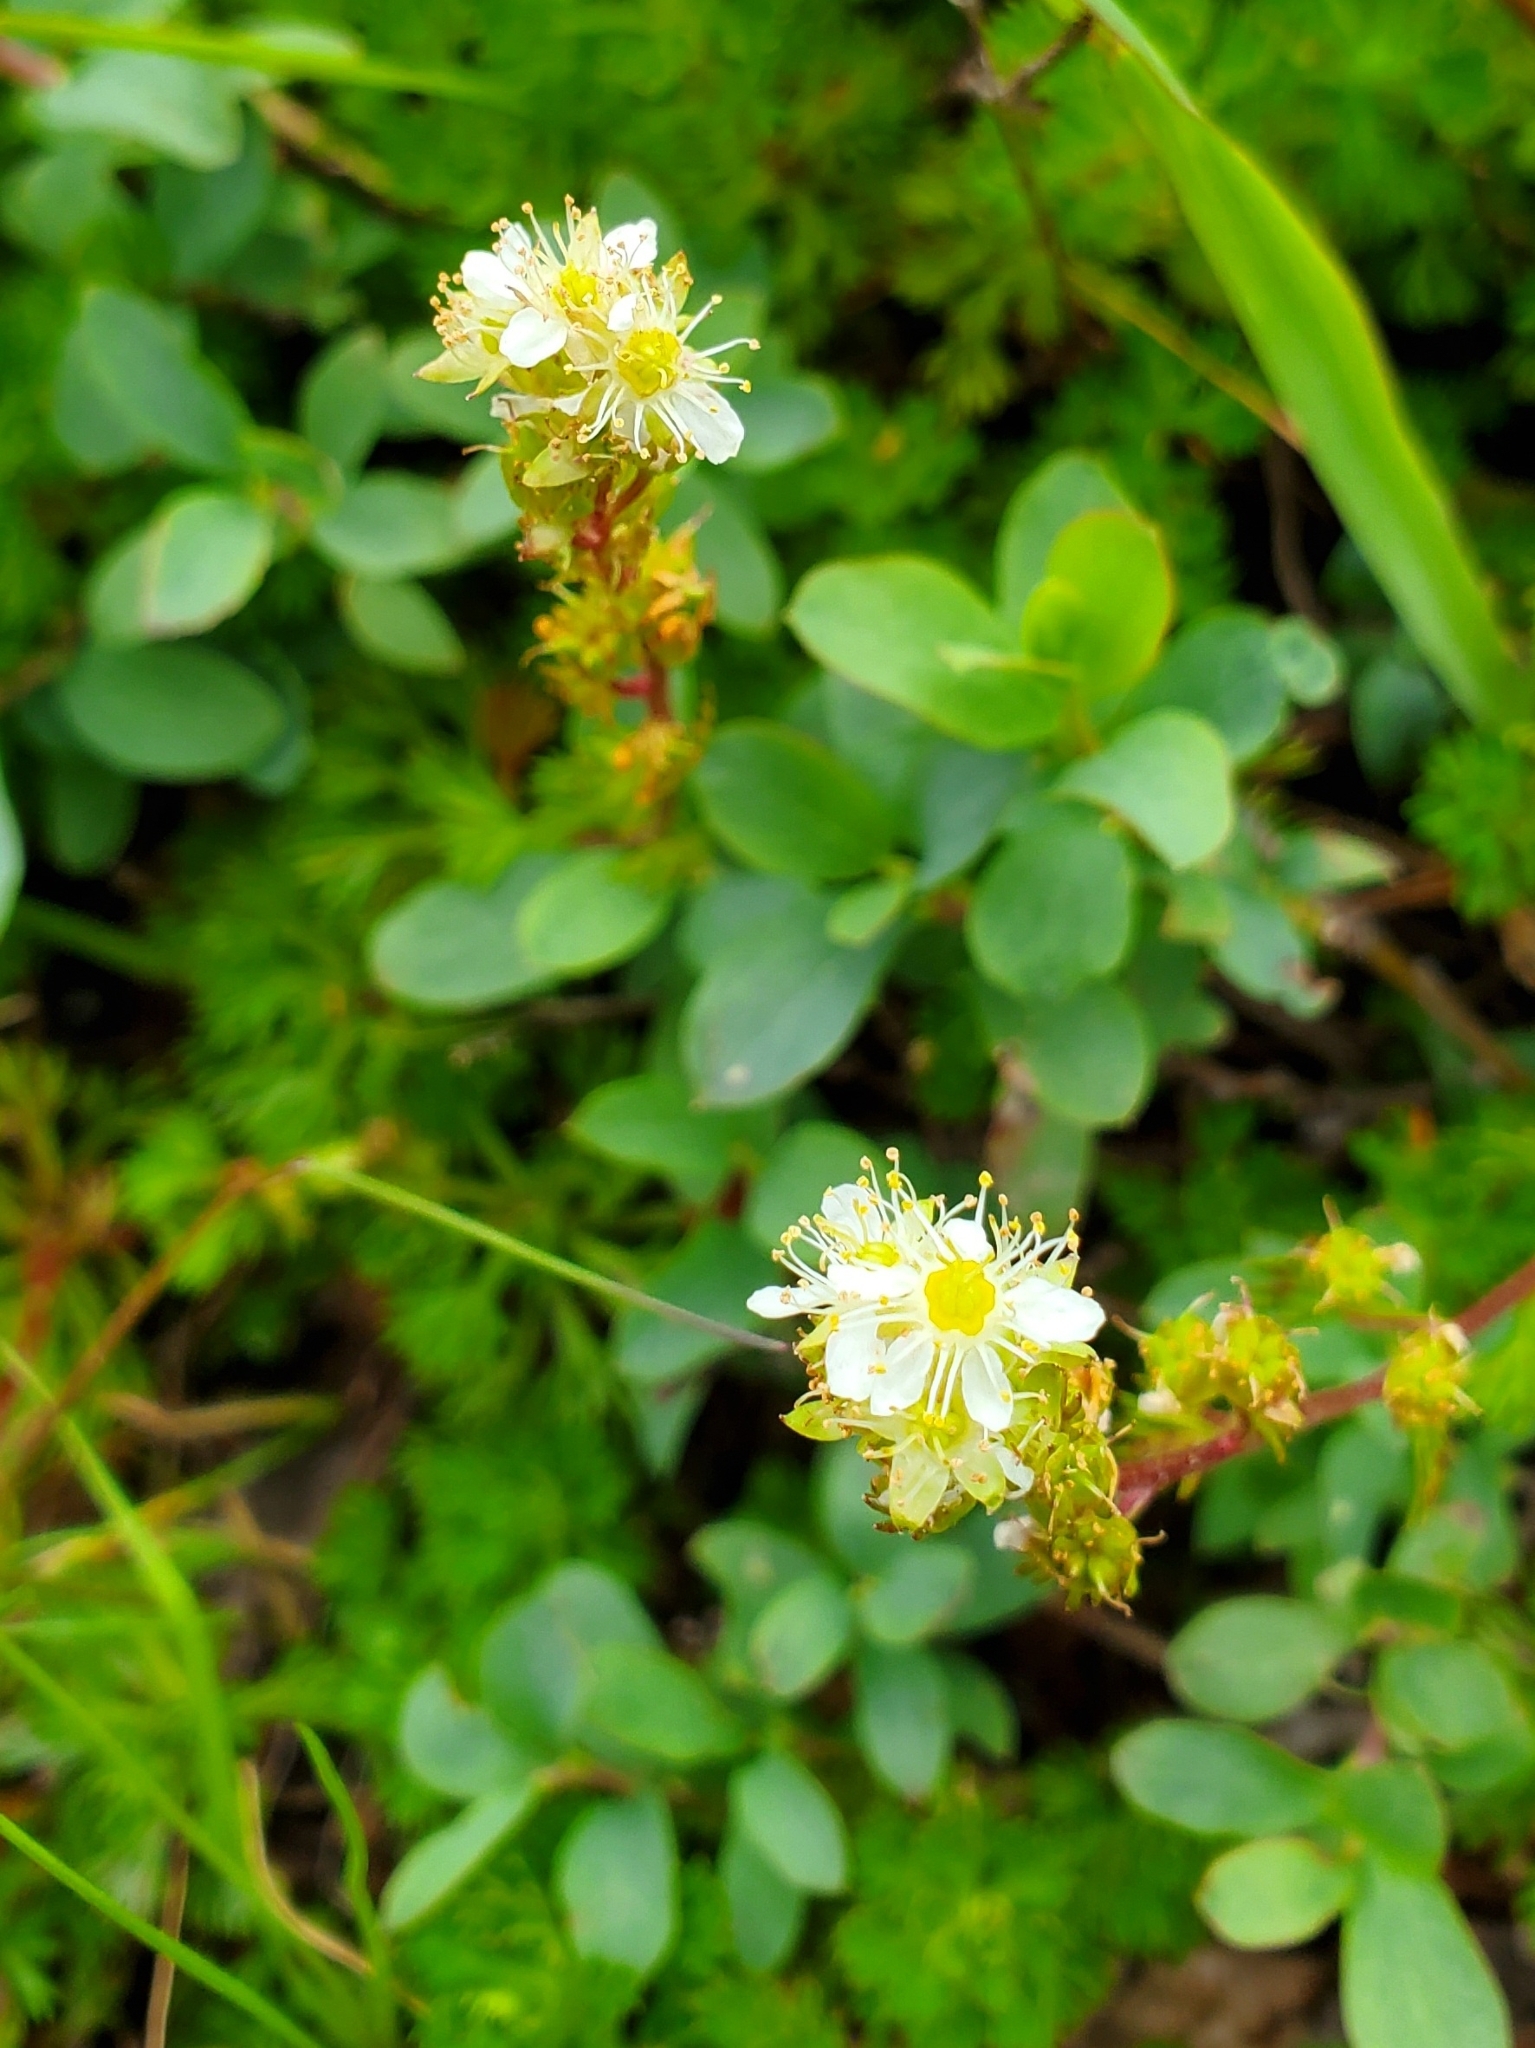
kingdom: Plantae
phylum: Tracheophyta
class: Magnoliopsida
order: Rosales
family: Rosaceae
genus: Luetkea
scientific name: Luetkea pectinata
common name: Partridgefoot
